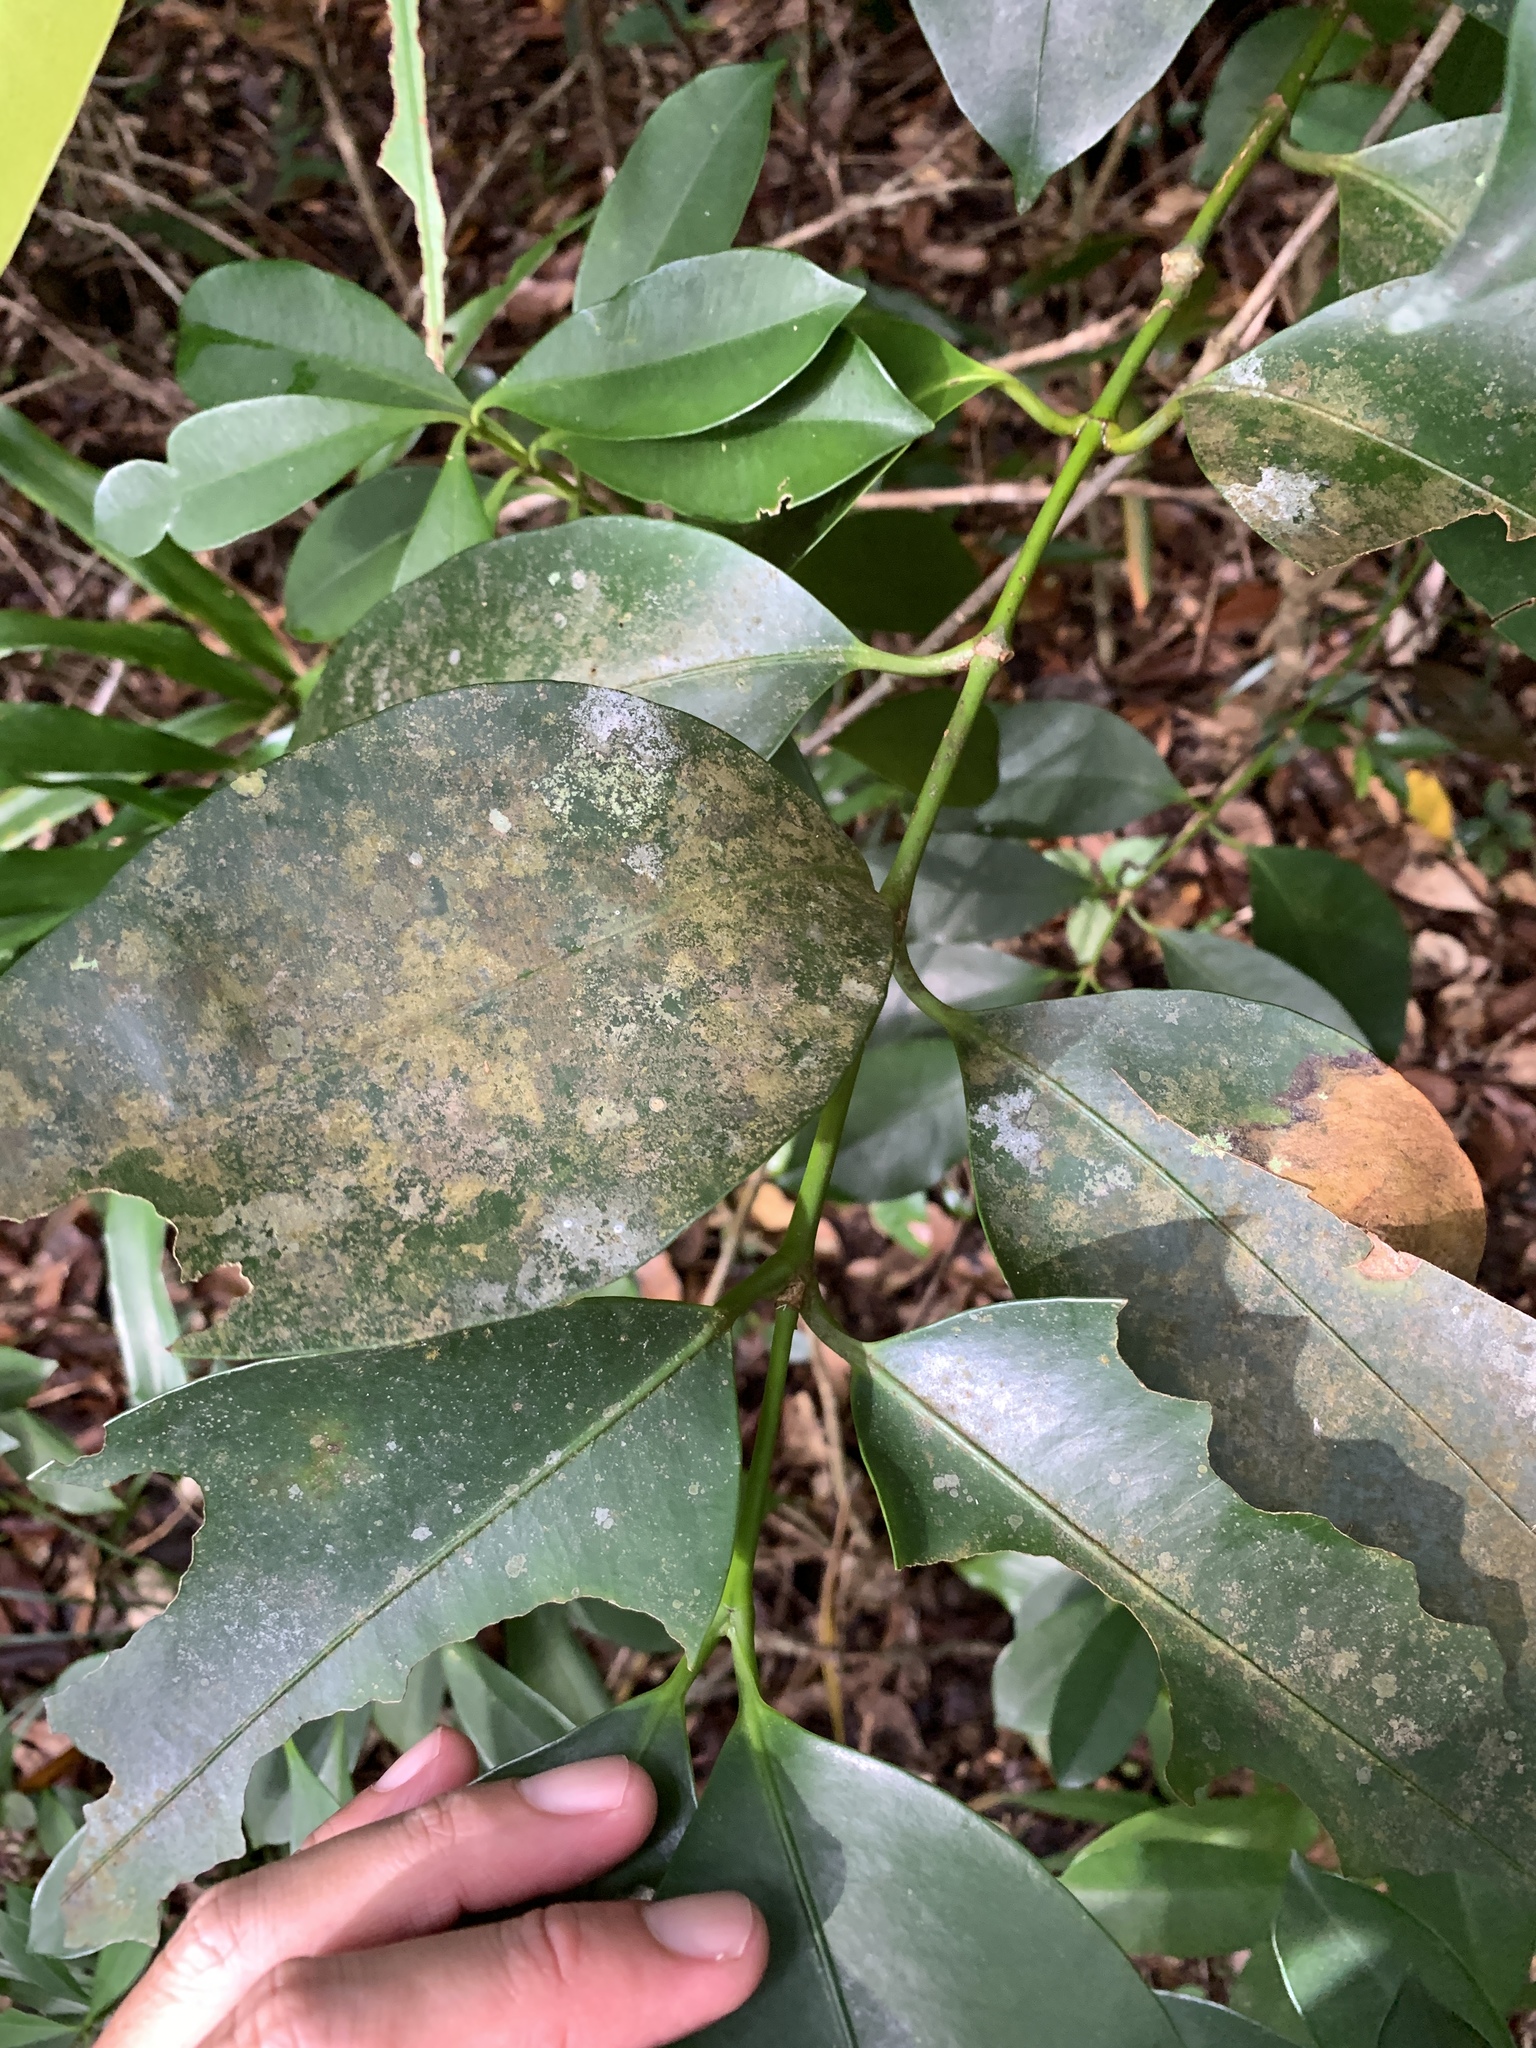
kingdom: Plantae
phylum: Tracheophyta
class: Magnoliopsida
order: Myrtales
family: Melastomataceae
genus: Memecylon
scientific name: Memecylon lanceolatum
